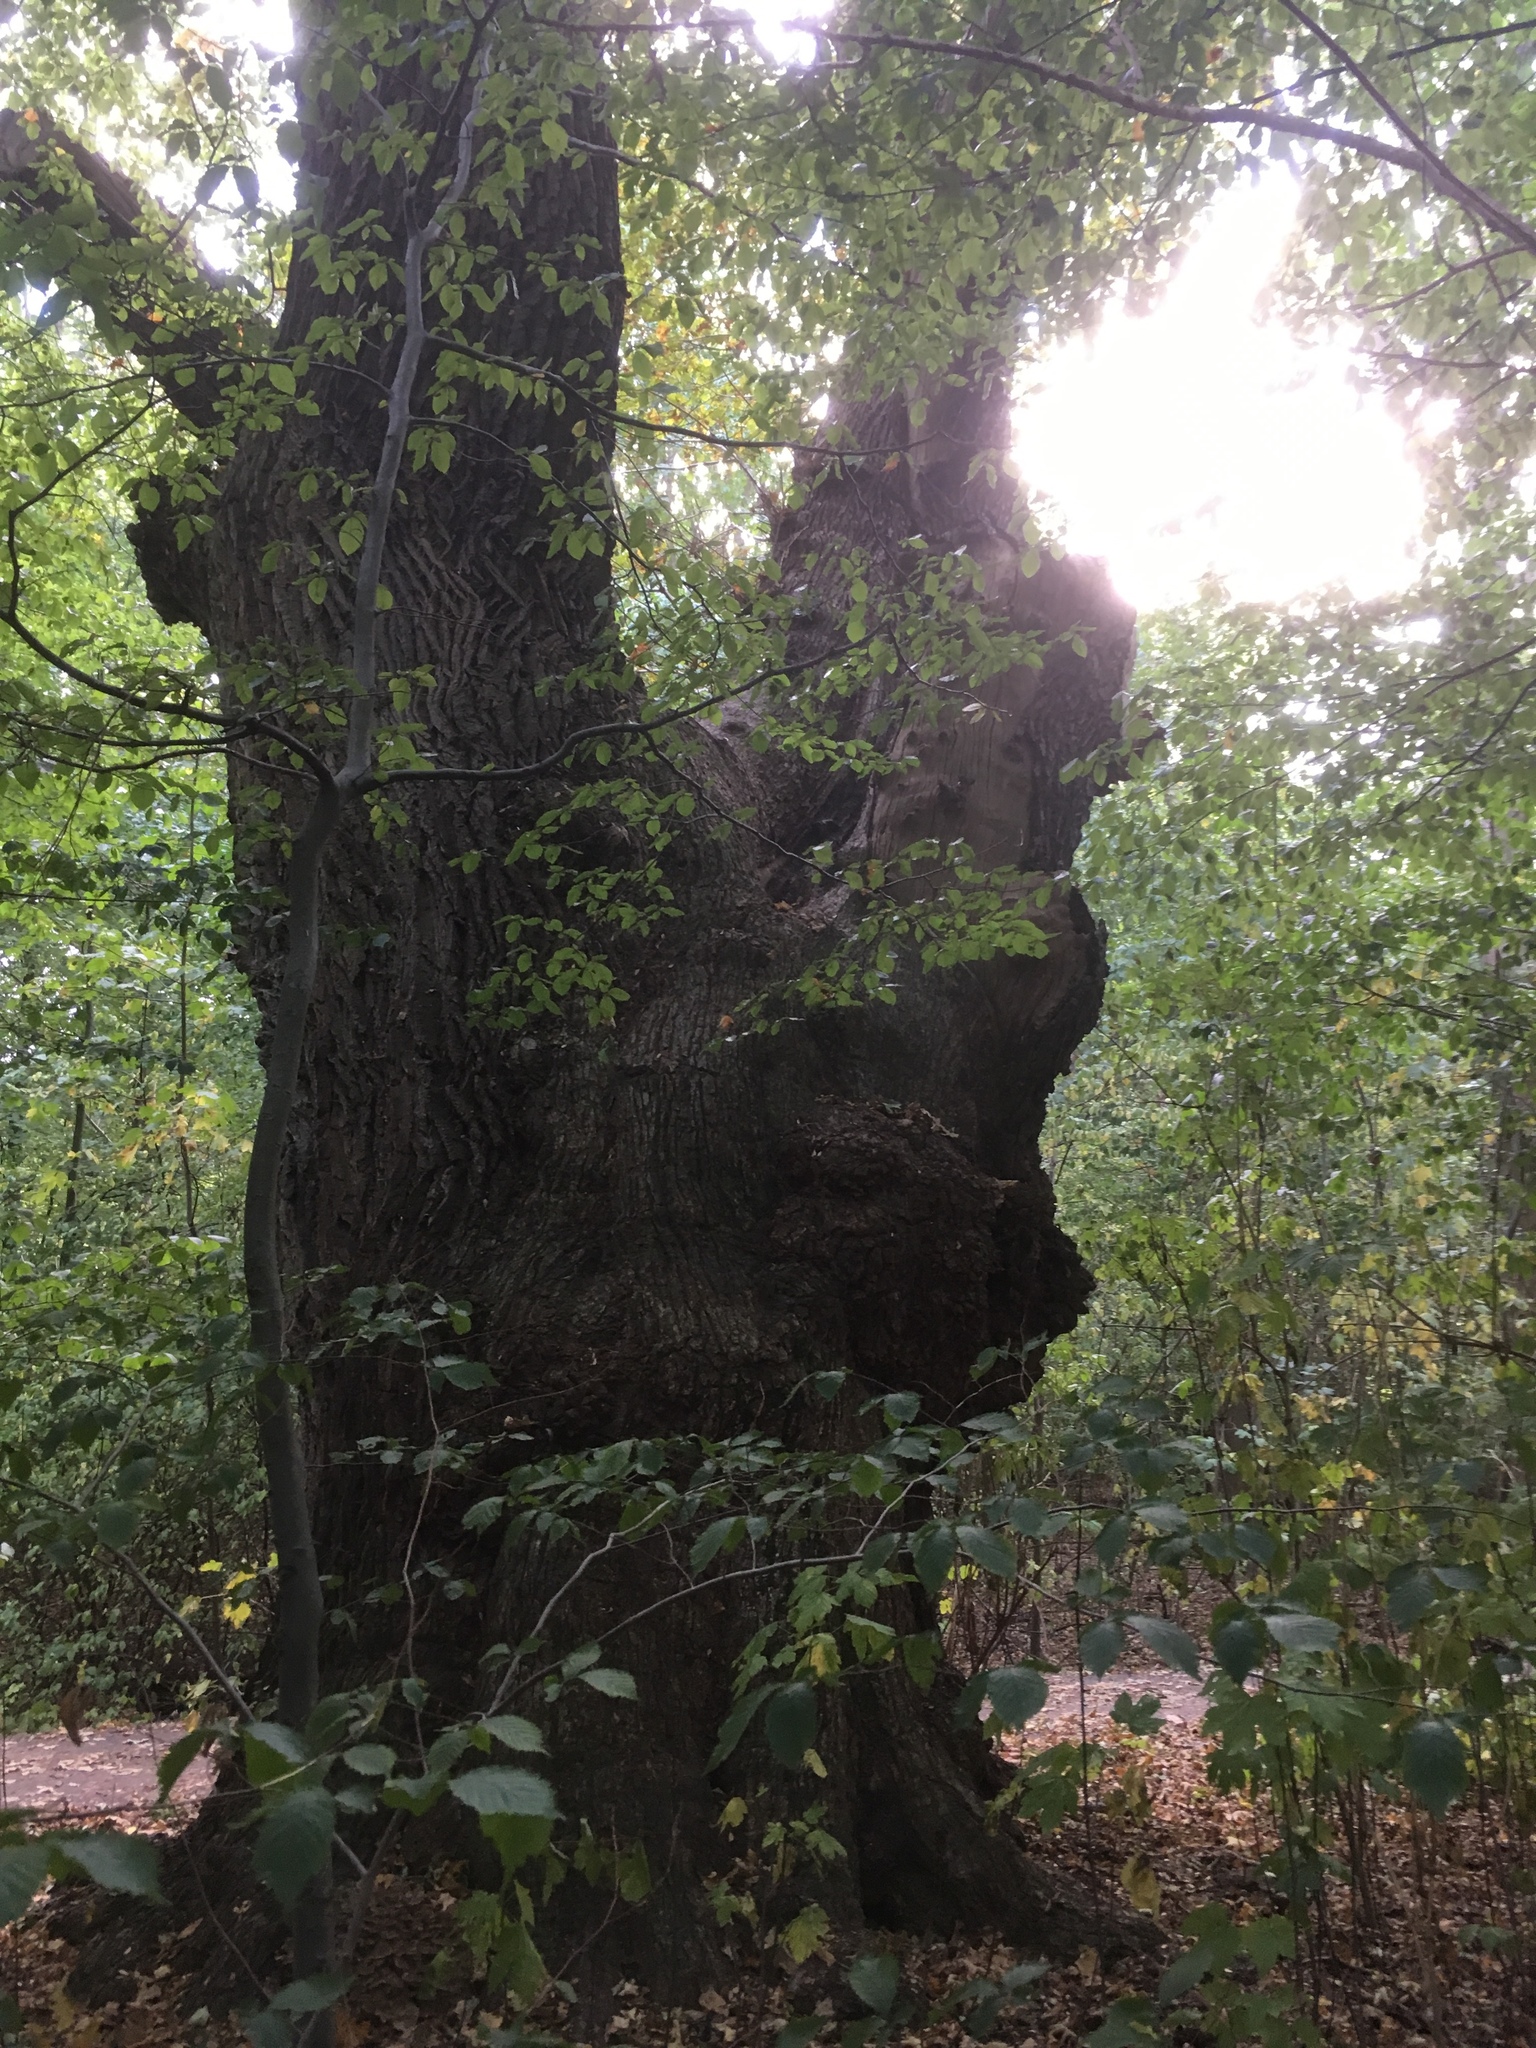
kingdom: Fungi
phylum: Basidiomycota
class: Agaricomycetes
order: Polyporales
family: Grifolaceae
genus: Grifola
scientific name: Grifola frondosa
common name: Hen of the woods
